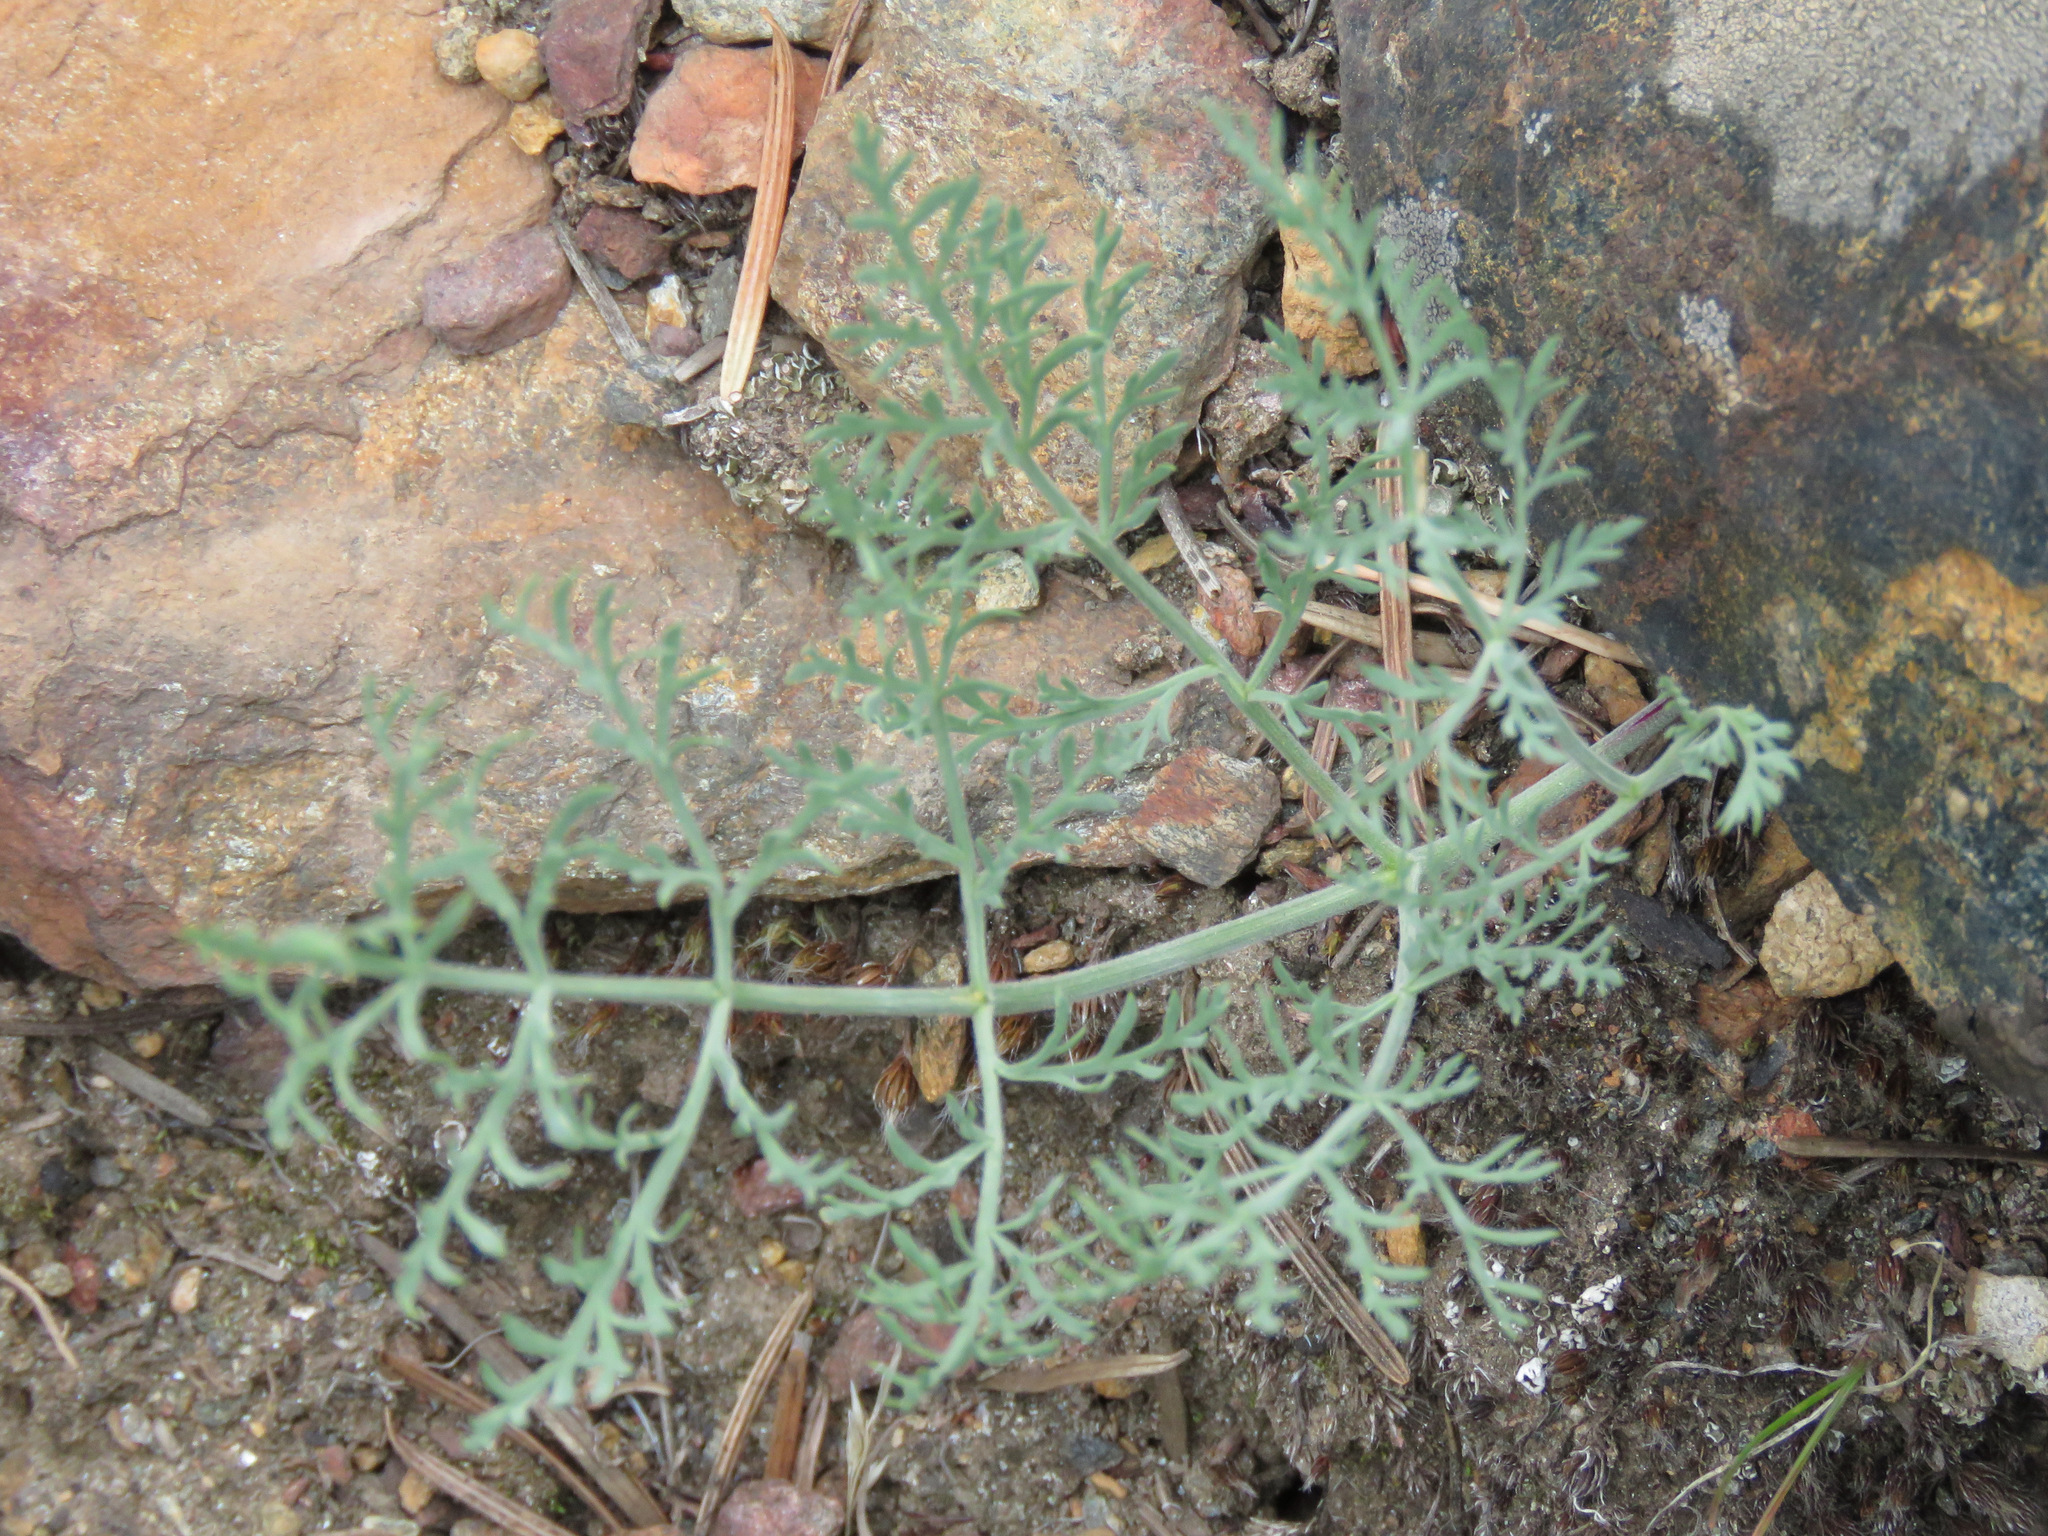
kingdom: Plantae
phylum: Tracheophyta
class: Magnoliopsida
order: Apiales
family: Apiaceae
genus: Lomatium
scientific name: Lomatium macrocarpum
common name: Big-seed biscuitroot
